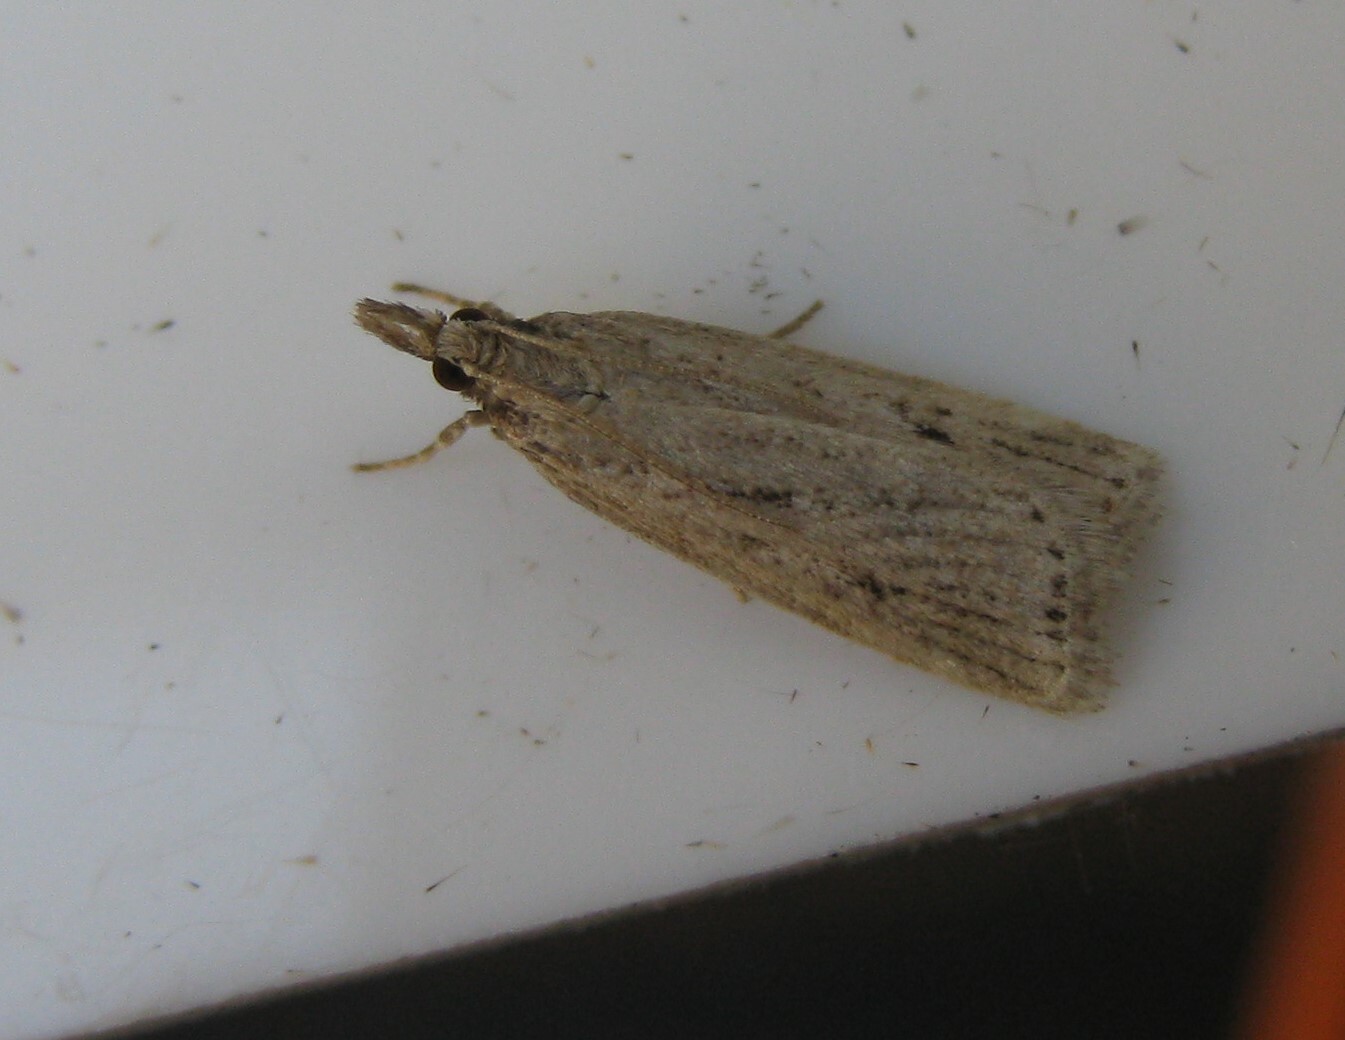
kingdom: Animalia
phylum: Arthropoda
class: Insecta
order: Lepidoptera
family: Crambidae
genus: Eudonia
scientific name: Eudonia truncicolella
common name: Ground-moss grey
